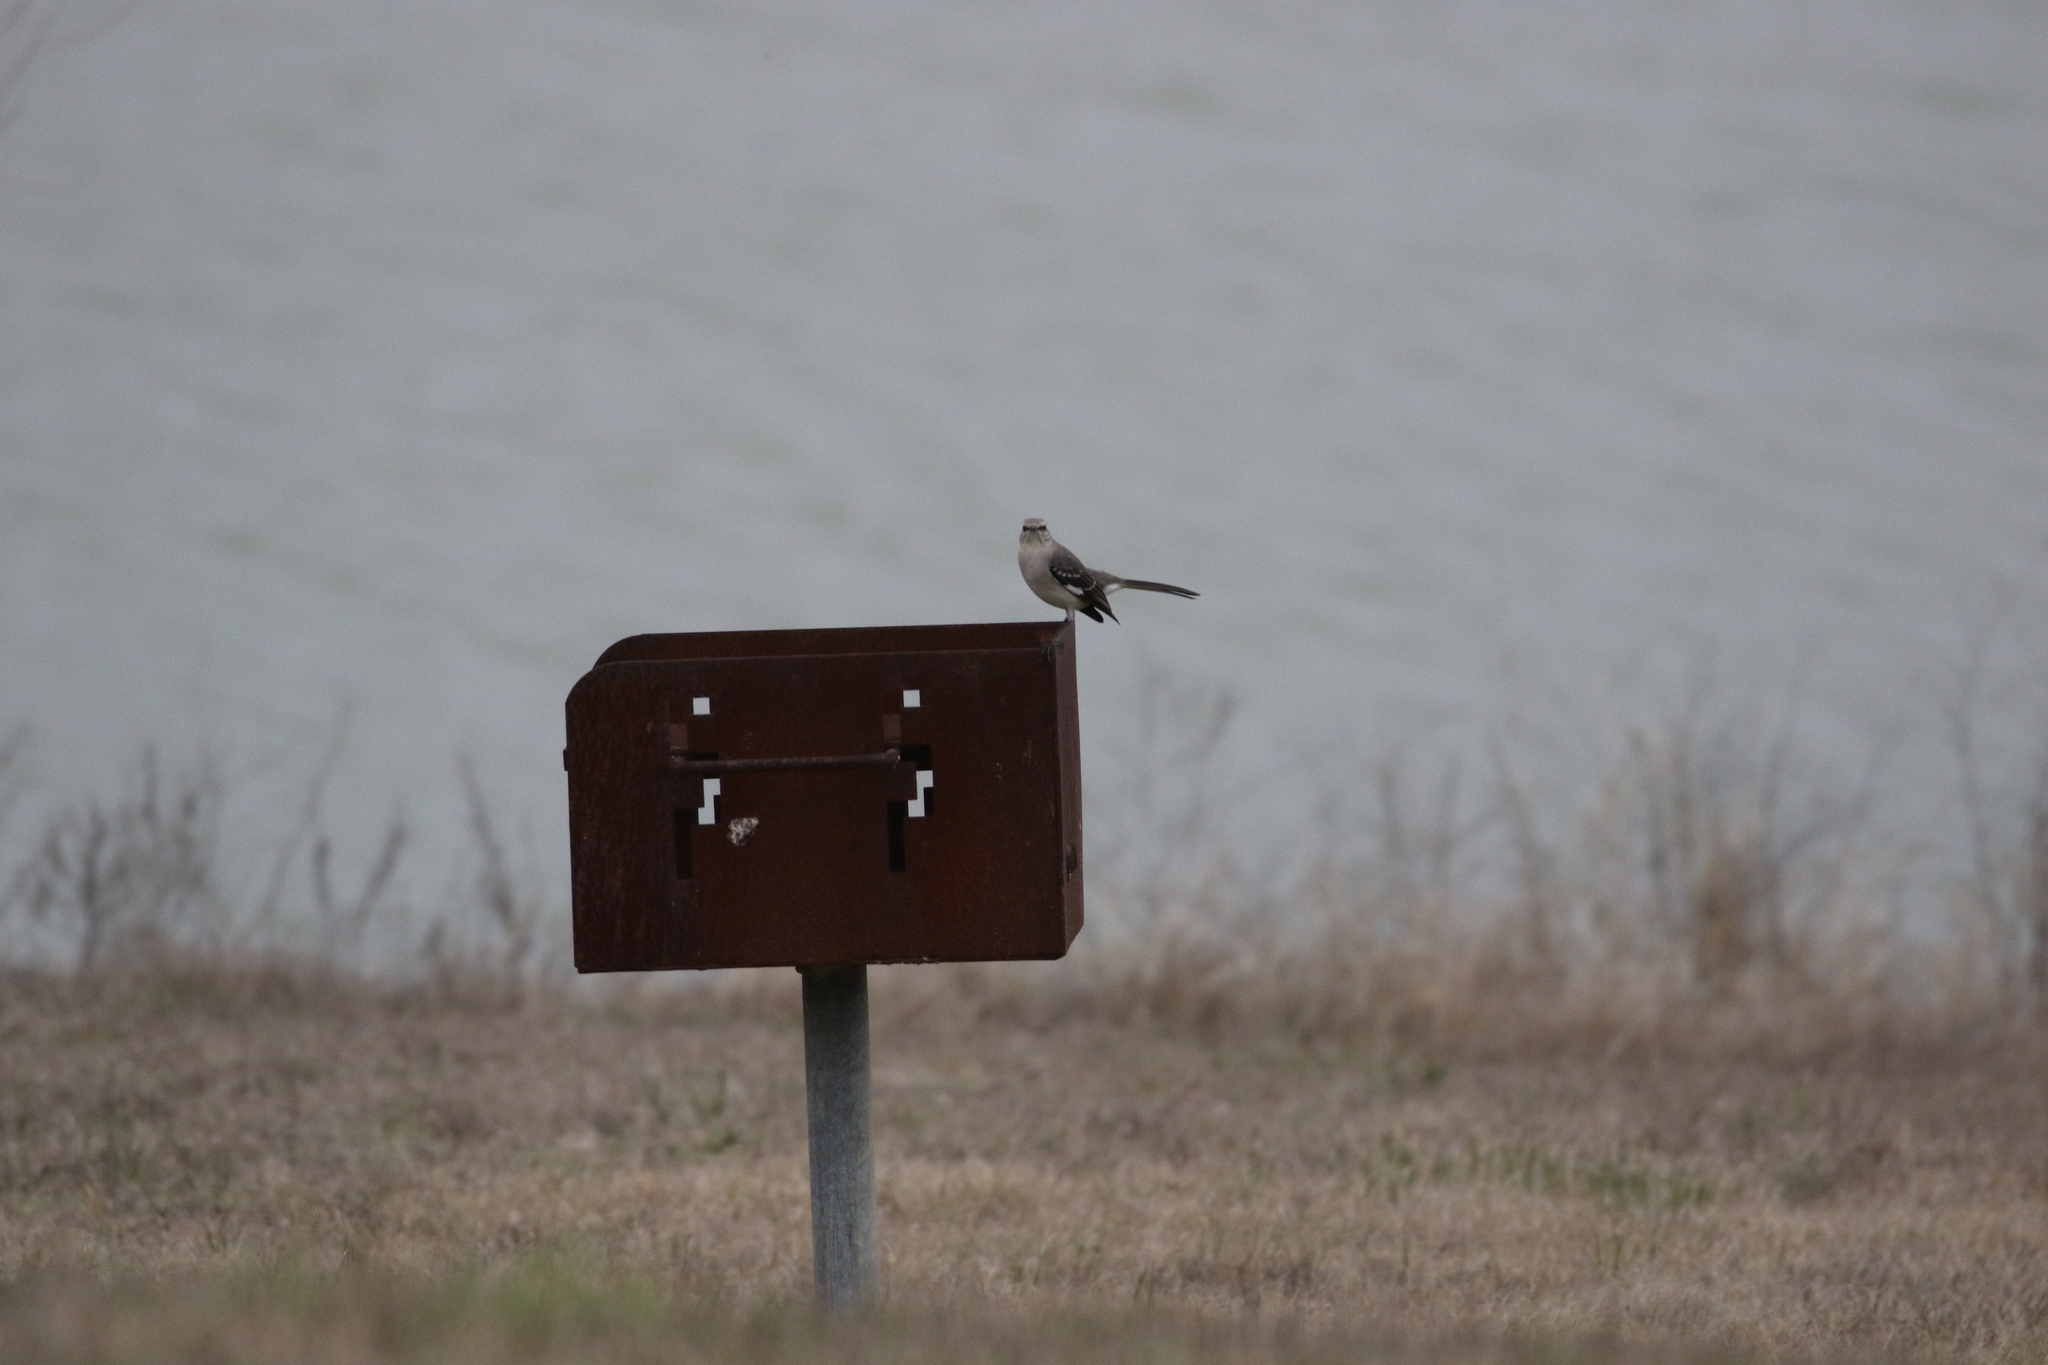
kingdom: Animalia
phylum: Chordata
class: Aves
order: Passeriformes
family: Mimidae
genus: Mimus
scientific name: Mimus polyglottos
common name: Northern mockingbird
